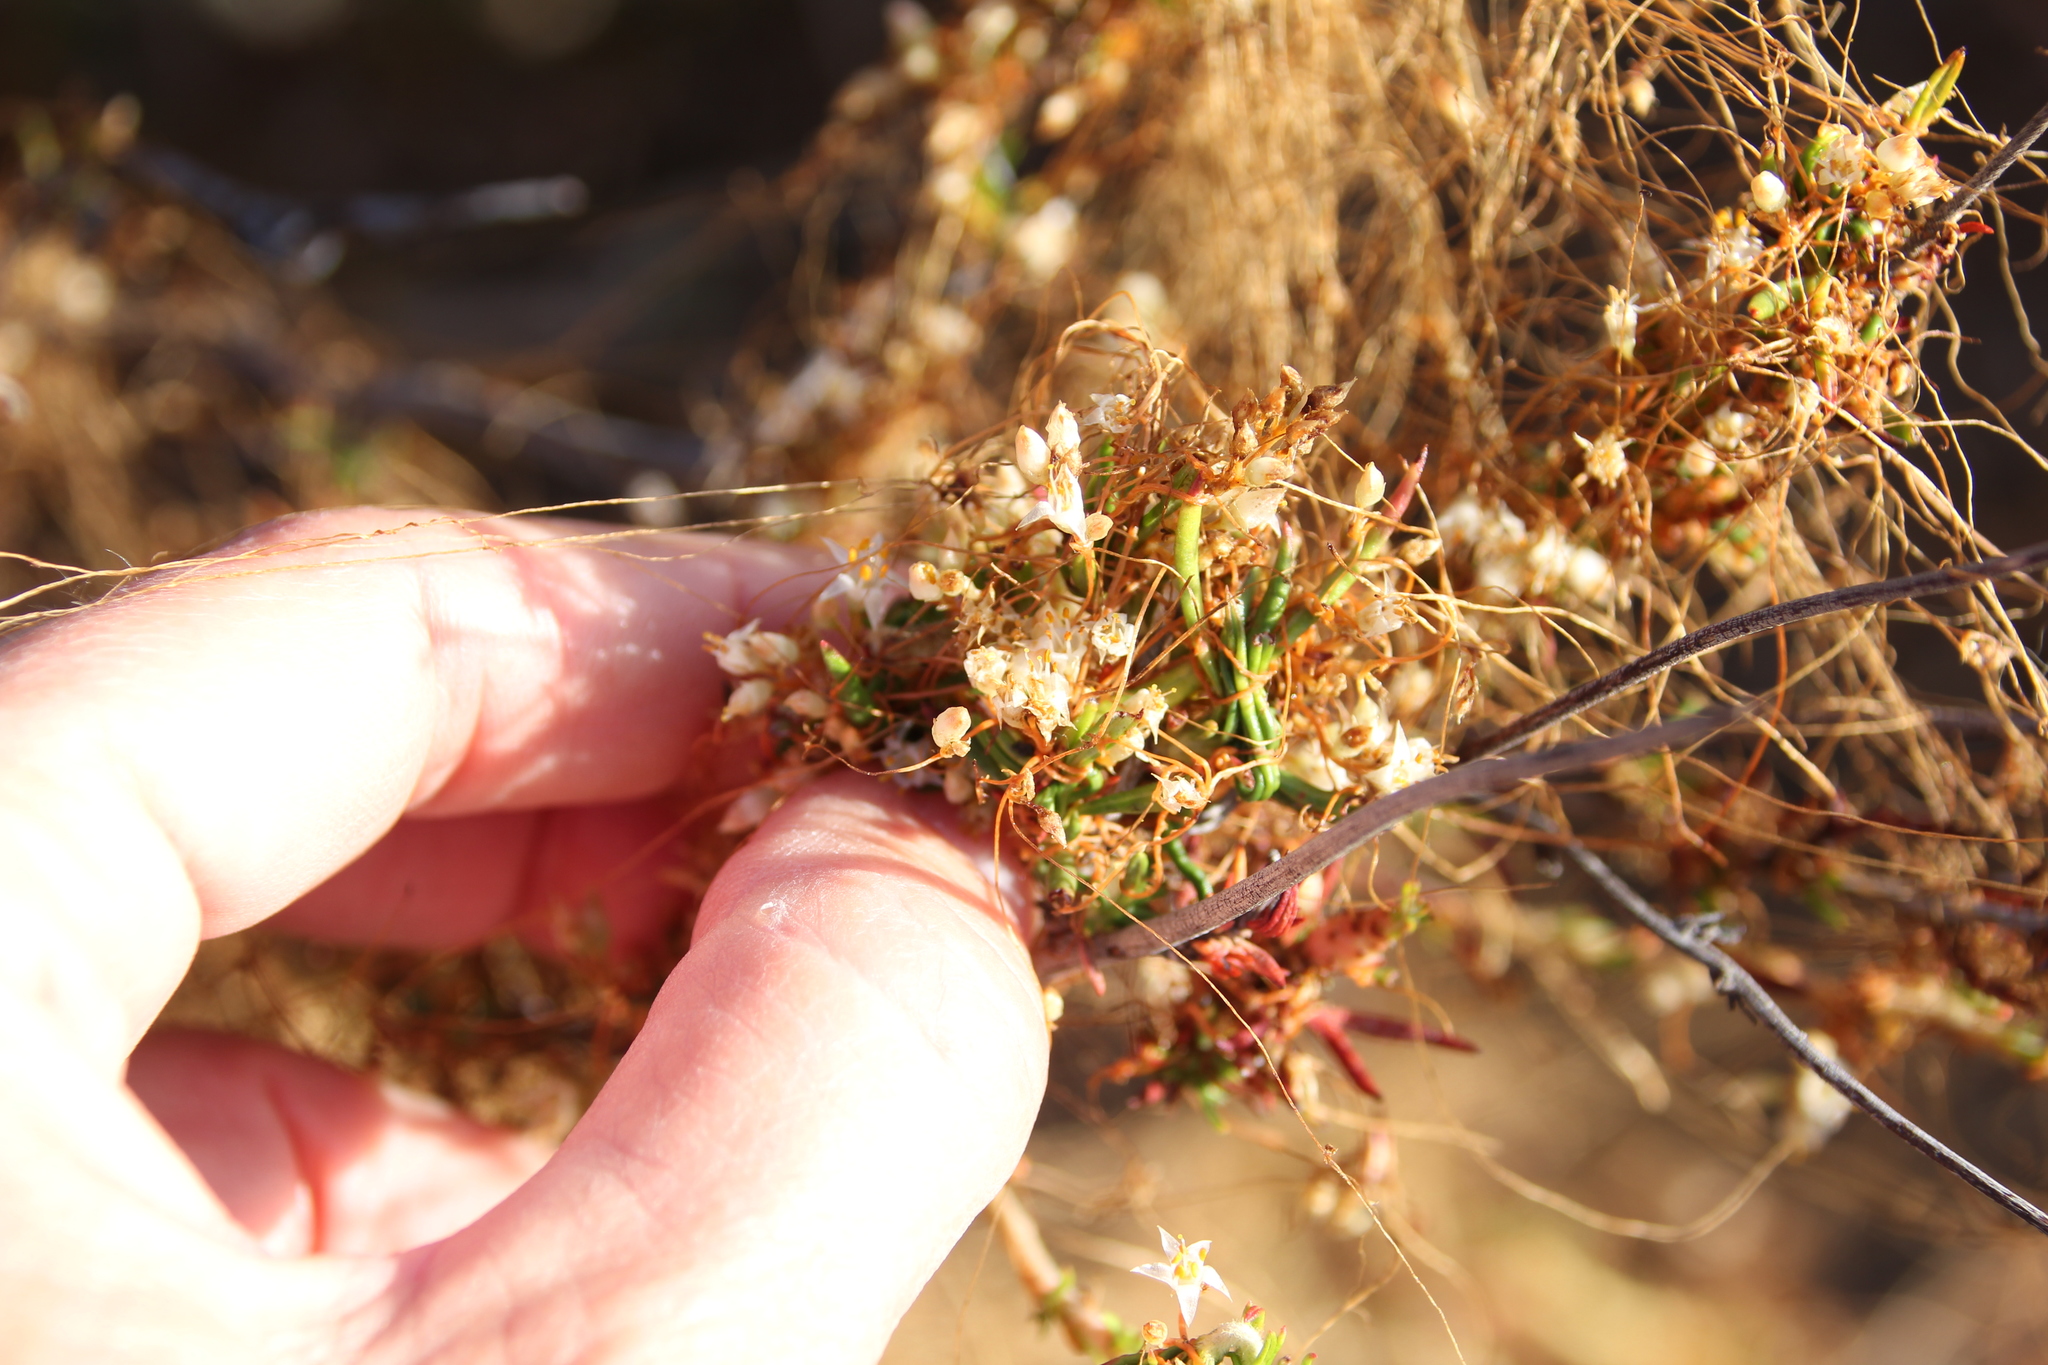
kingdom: Plantae
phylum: Tracheophyta
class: Magnoliopsida
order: Solanales
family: Convolvulaceae
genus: Cuscuta
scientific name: Cuscuta californica
